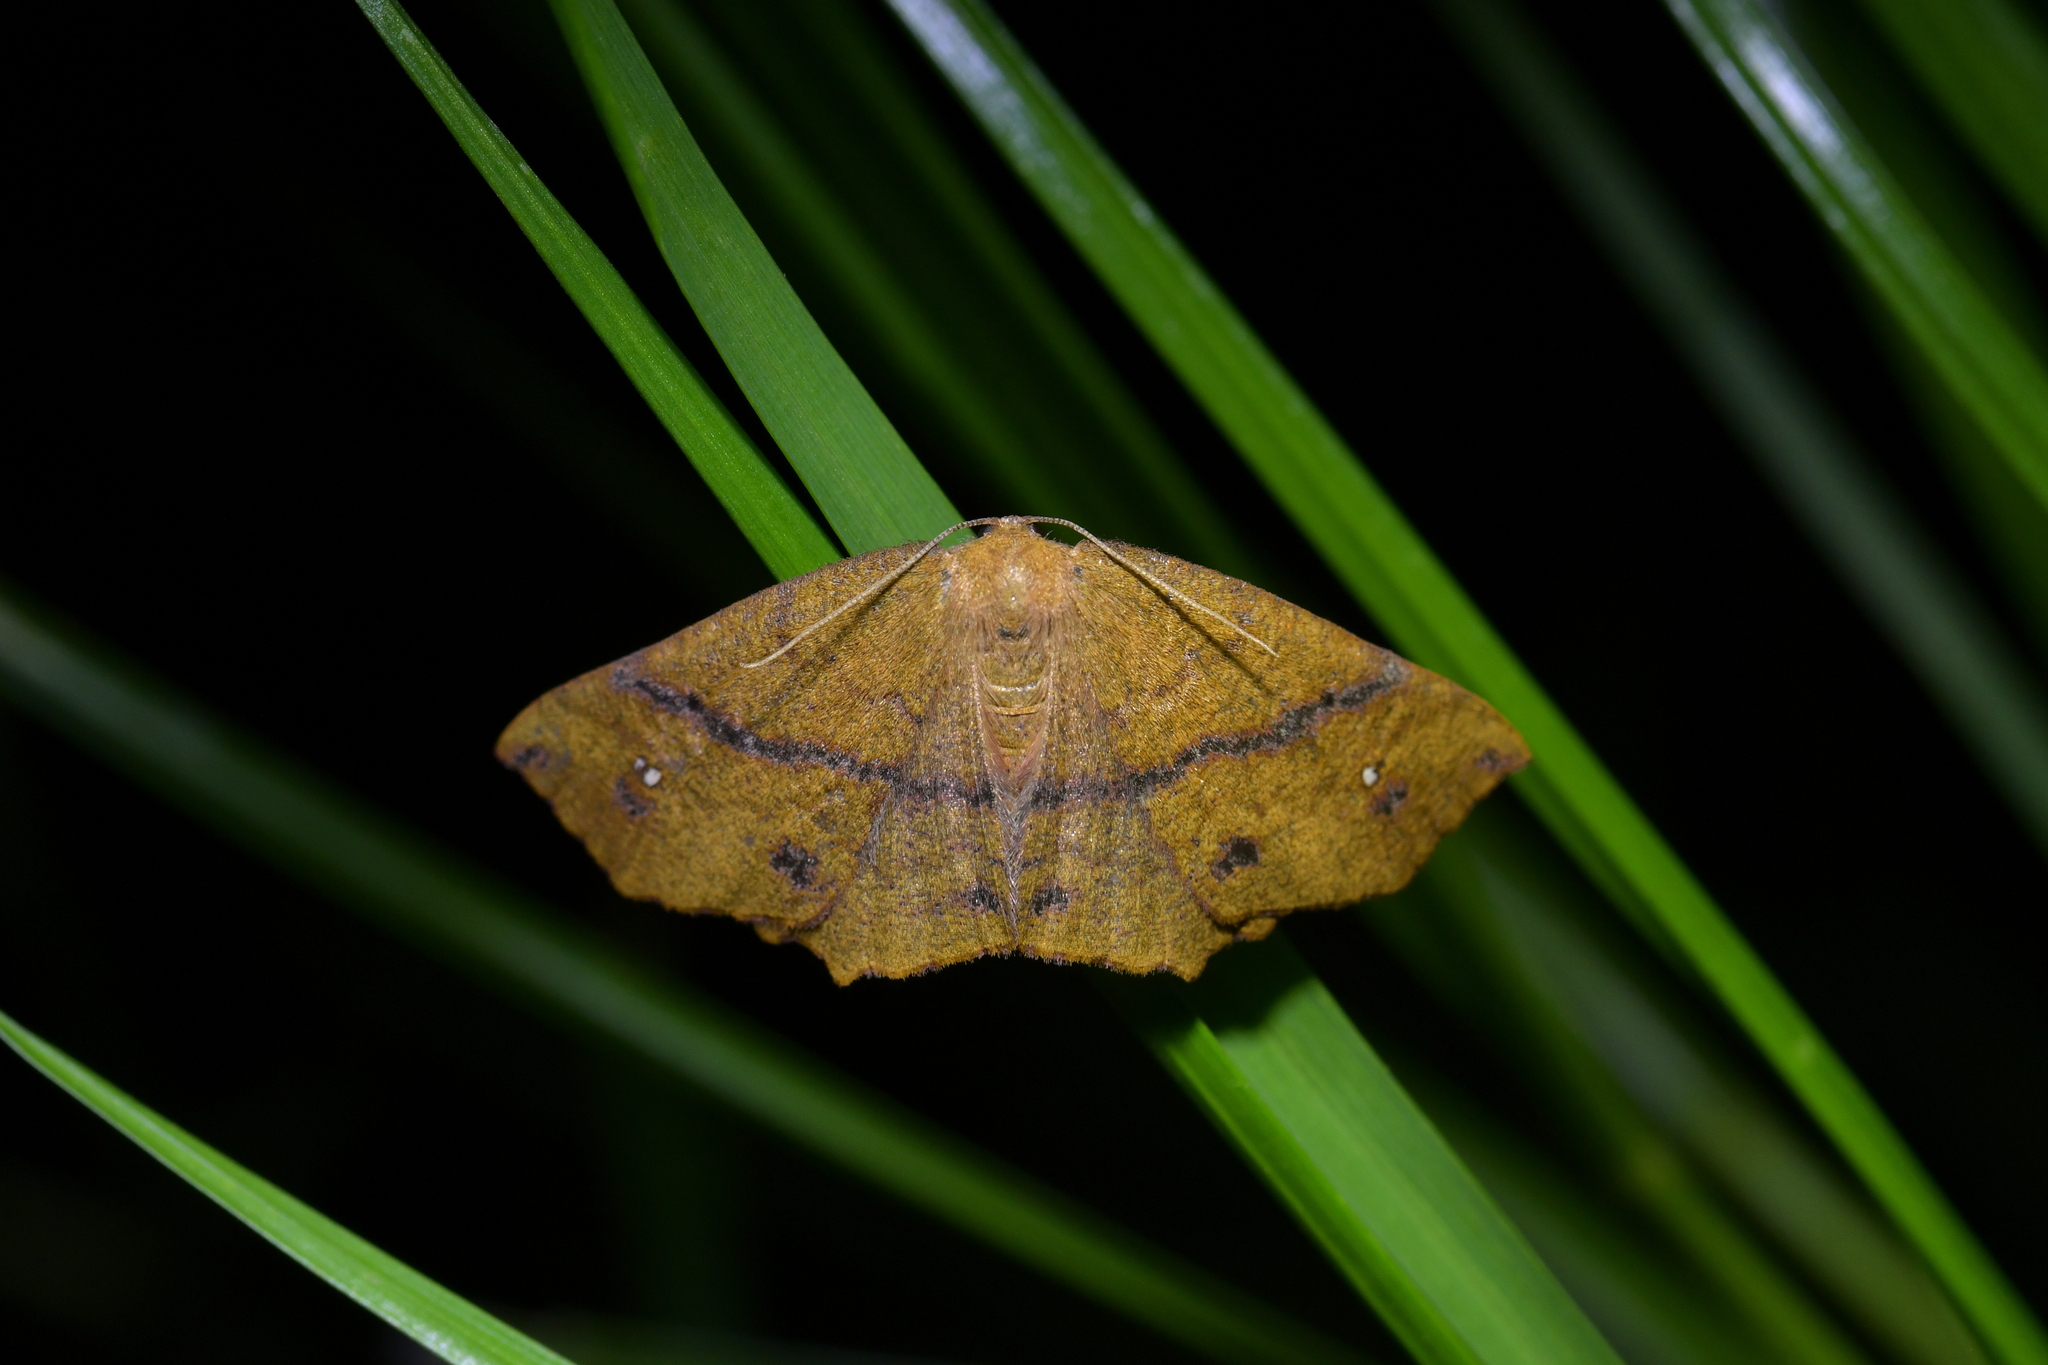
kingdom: Animalia
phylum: Arthropoda
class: Insecta
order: Lepidoptera
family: Geometridae
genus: Xyridacma
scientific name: Xyridacma ustaria
